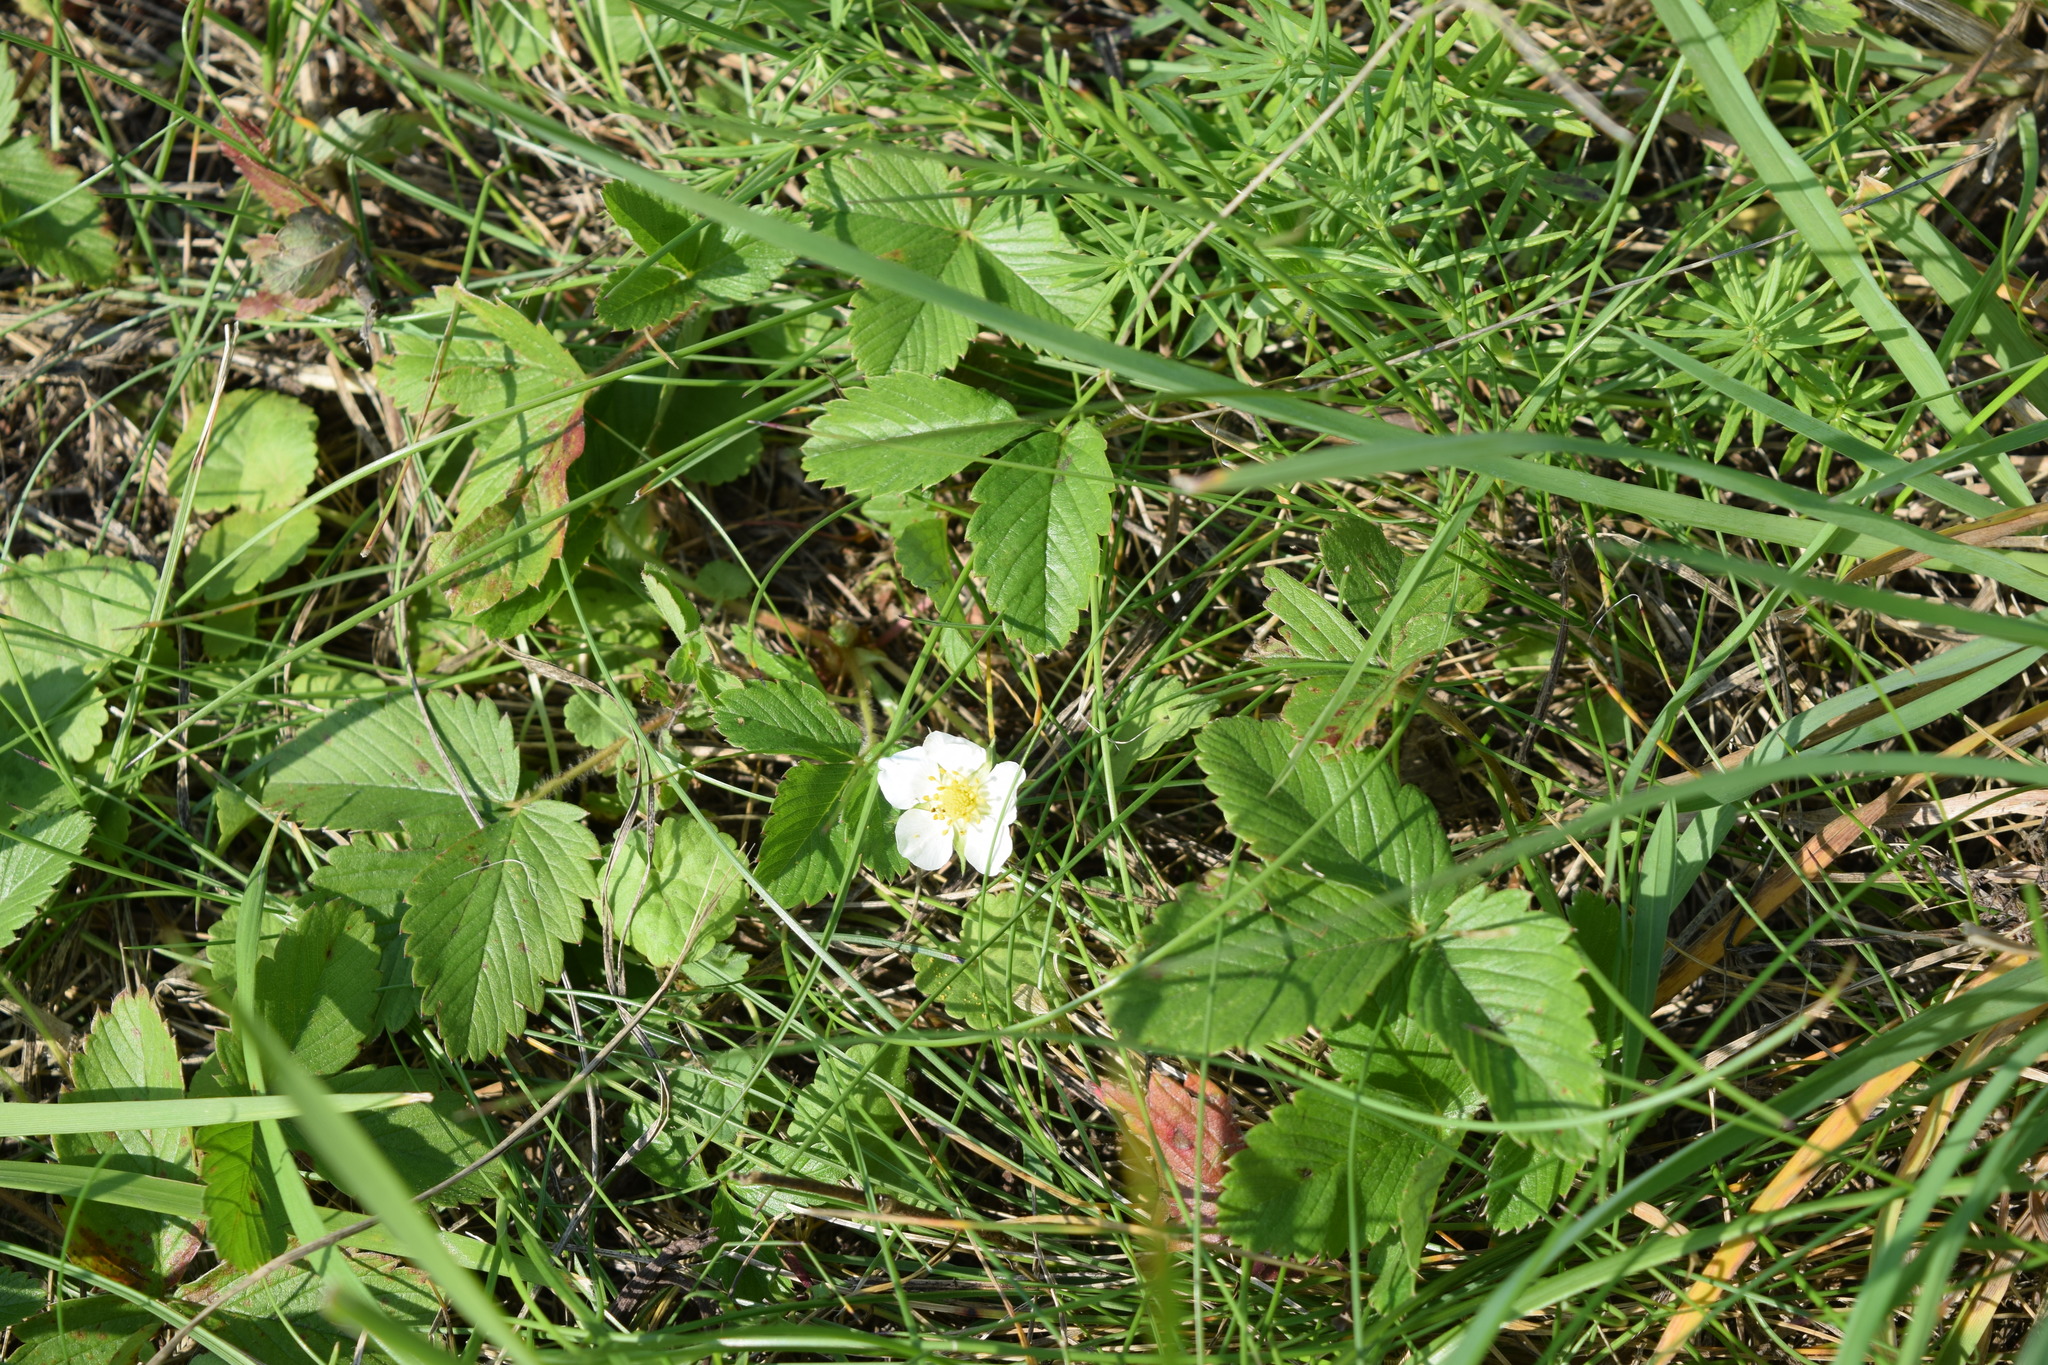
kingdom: Plantae
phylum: Tracheophyta
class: Magnoliopsida
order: Rosales
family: Rosaceae
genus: Fragaria
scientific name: Fragaria viridis
